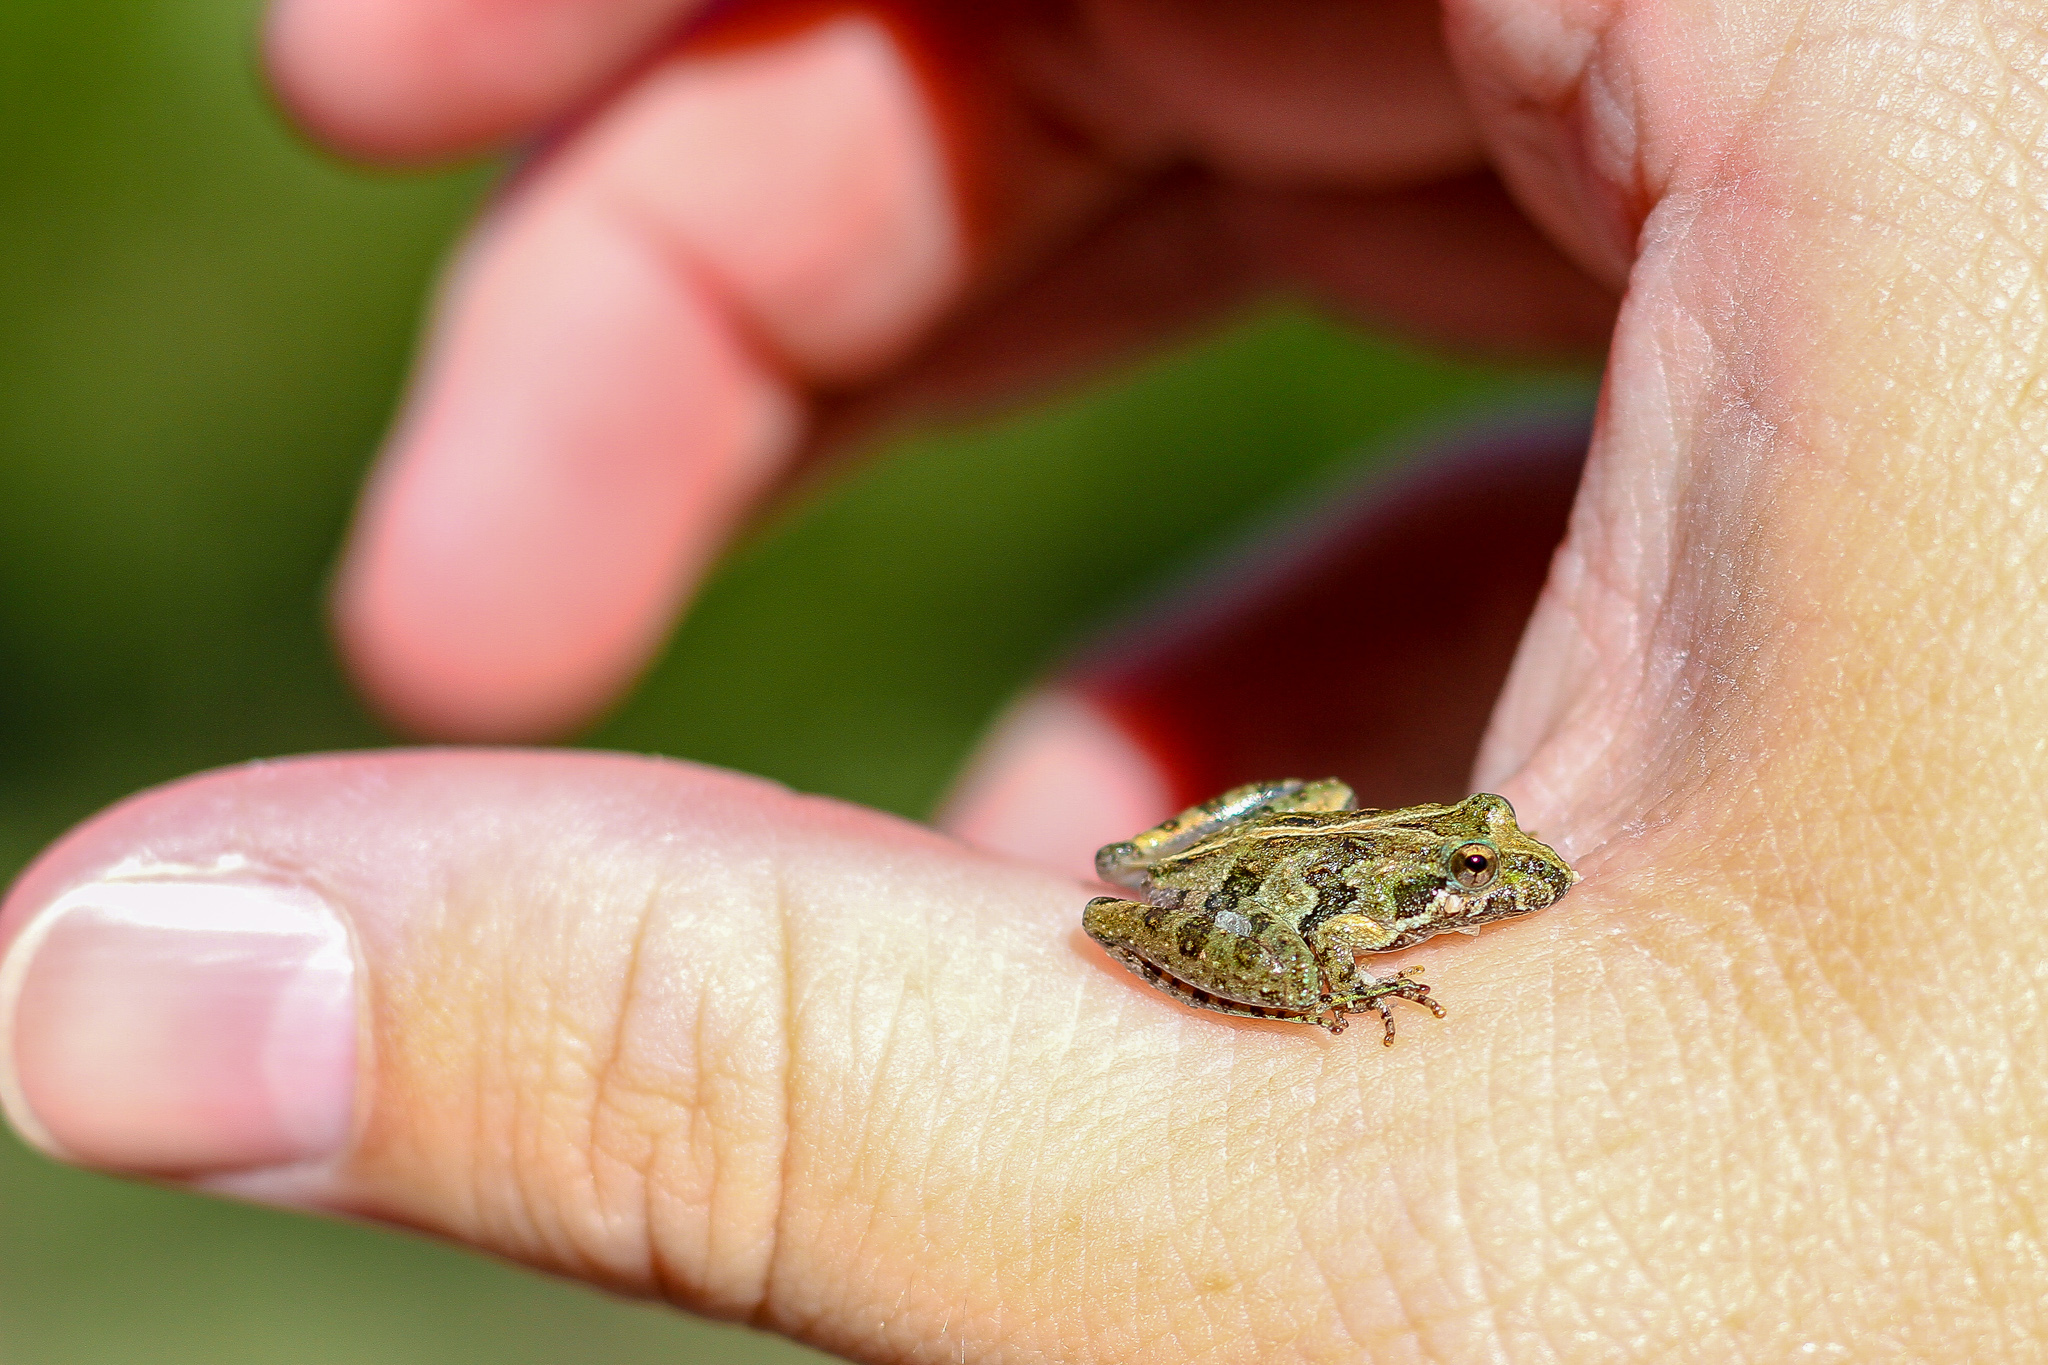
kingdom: Animalia
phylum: Chordata
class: Amphibia
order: Anura
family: Hylidae
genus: Acris
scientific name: Acris gryllus
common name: Southern cricket frog
